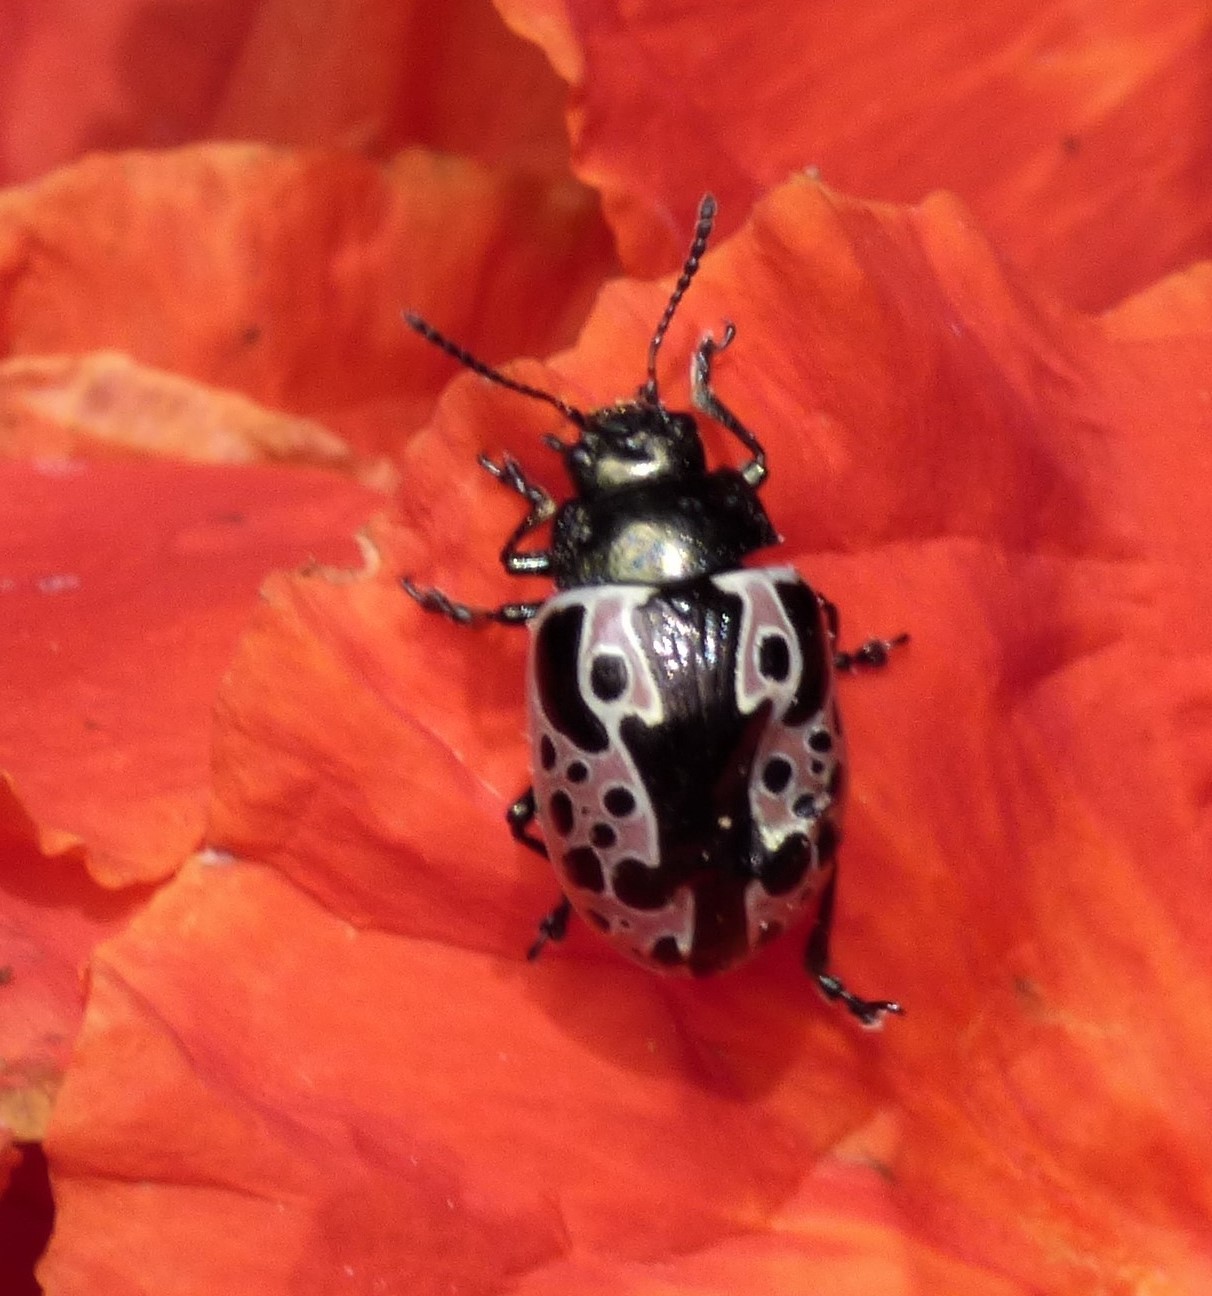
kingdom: Animalia
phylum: Arthropoda
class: Insecta
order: Coleoptera
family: Chrysomelidae
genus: Calligrapha
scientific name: Calligrapha argus
